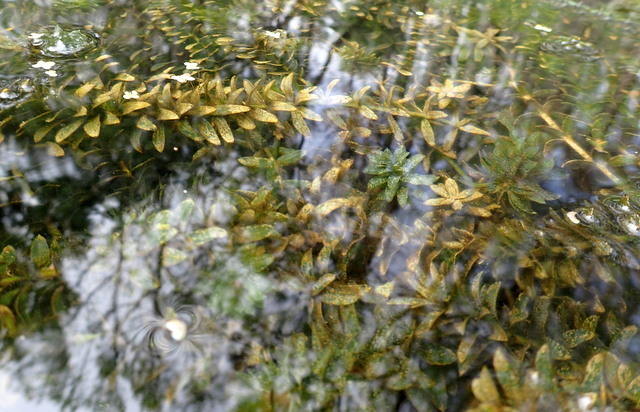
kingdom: Plantae
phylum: Tracheophyta
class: Liliopsida
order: Alismatales
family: Hydrocharitaceae
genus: Hydrilla
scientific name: Hydrilla verticillata
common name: Florida-elodea
